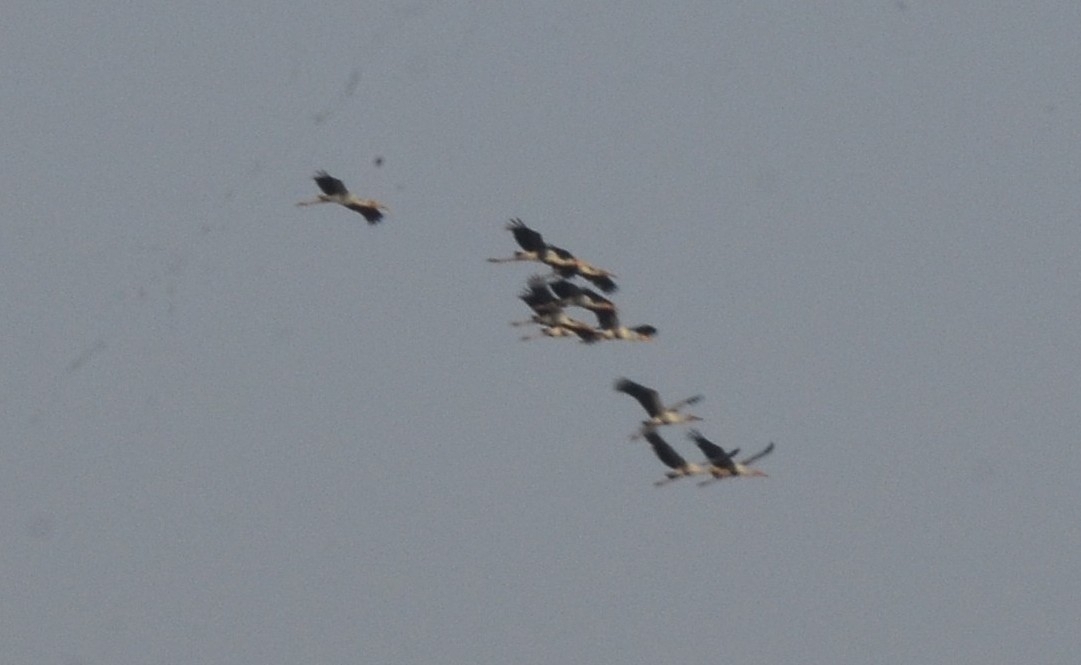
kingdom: Animalia
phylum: Chordata
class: Aves
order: Ciconiiformes
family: Ciconiidae
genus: Mycteria
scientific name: Mycteria leucocephala
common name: Painted stork
